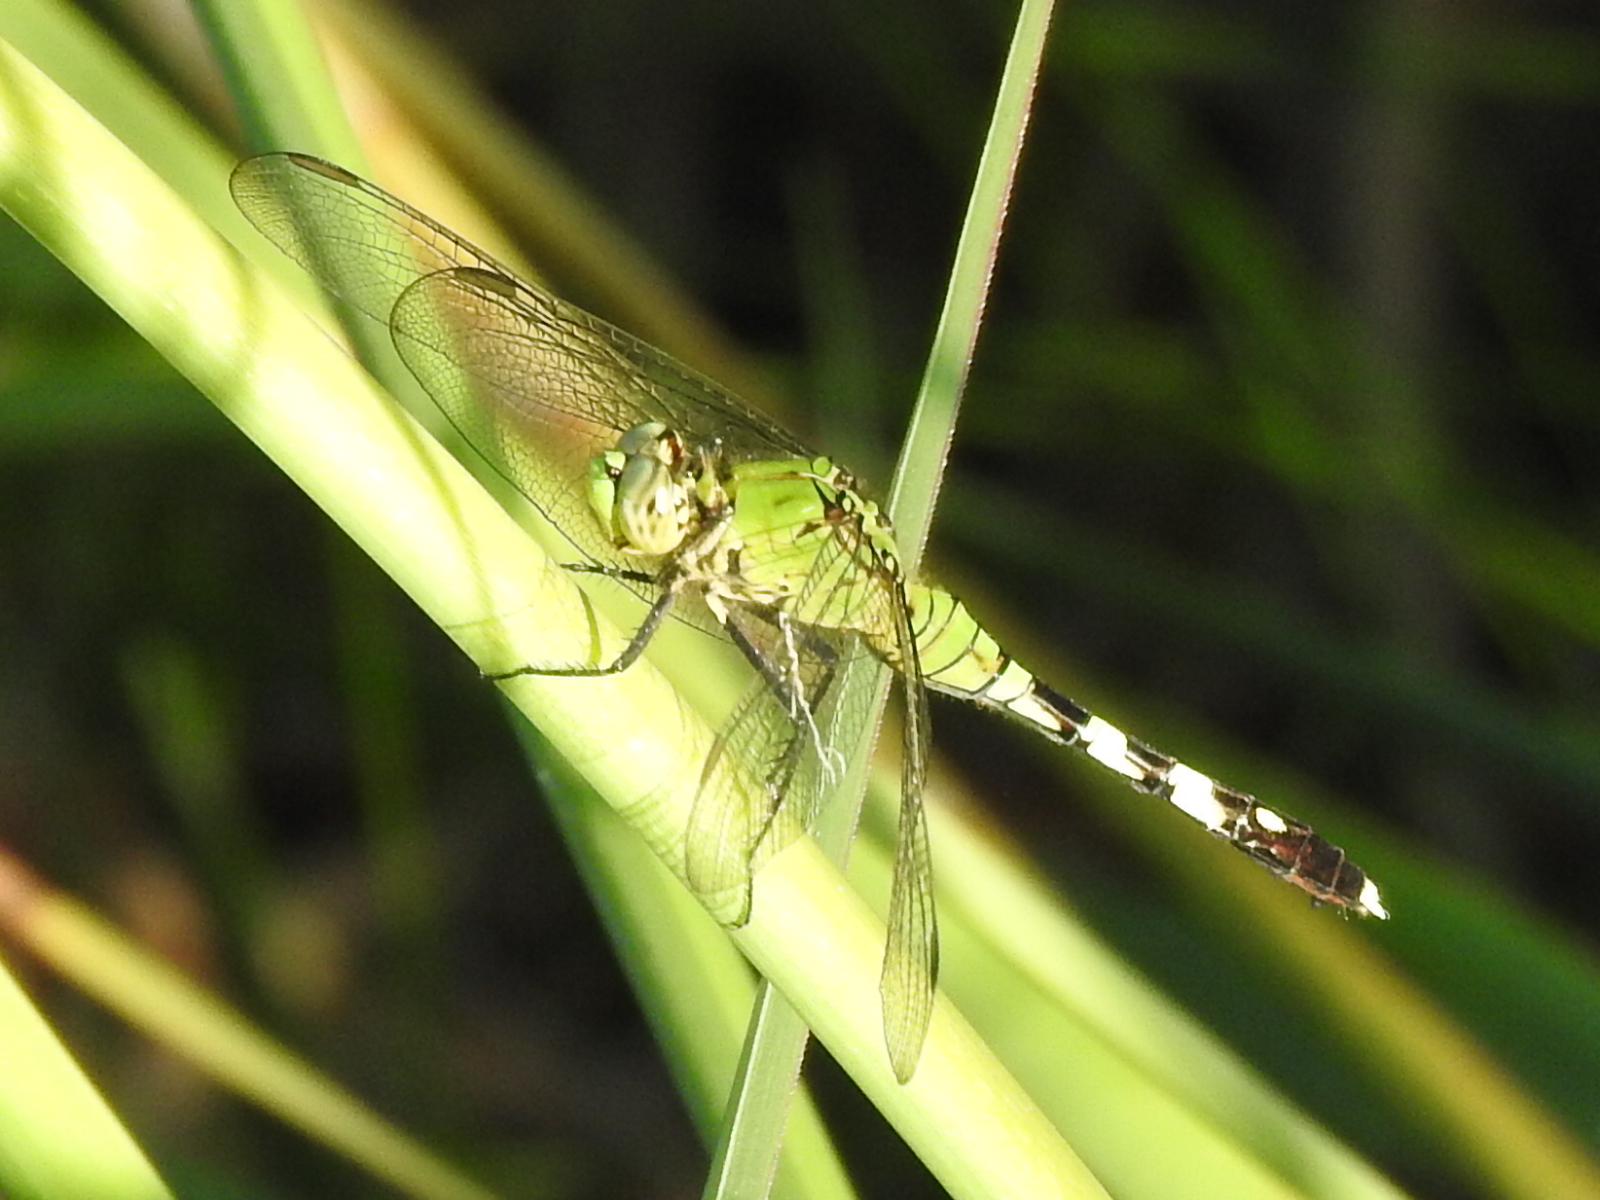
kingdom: Animalia
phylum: Arthropoda
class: Insecta
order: Odonata
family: Libellulidae
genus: Erythemis
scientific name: Erythemis simplicicollis
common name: Eastern pondhawk
